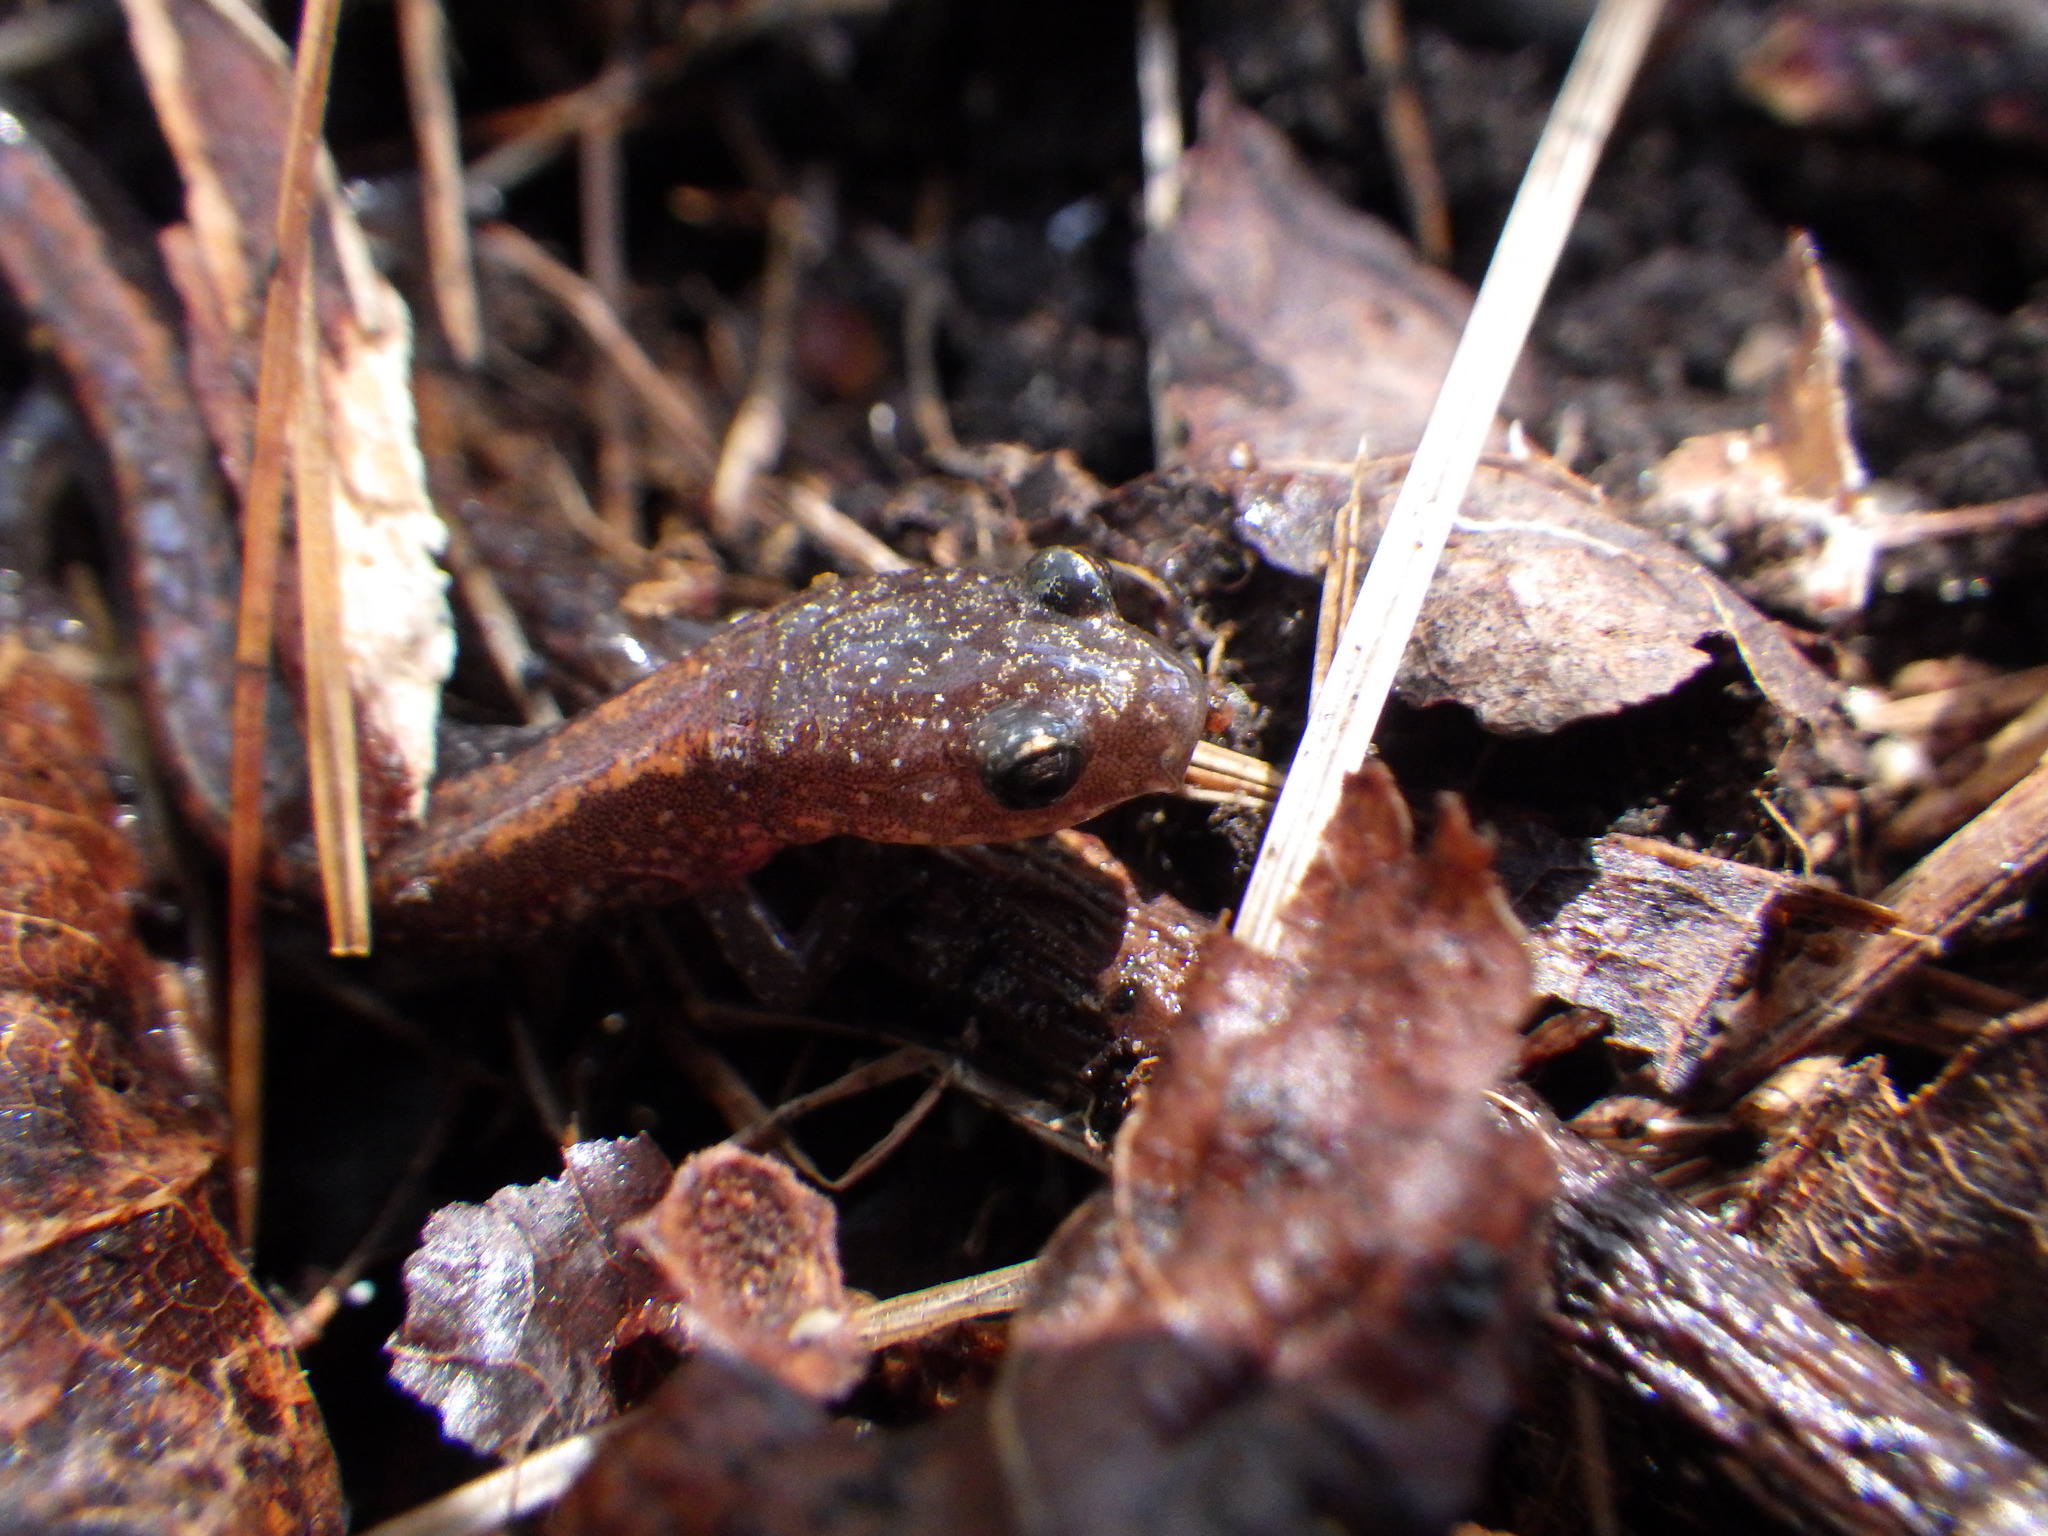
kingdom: Animalia
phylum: Chordata
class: Amphibia
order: Caudata
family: Plethodontidae
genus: Plethodon
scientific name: Plethodon cinereus
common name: Redback salamander
